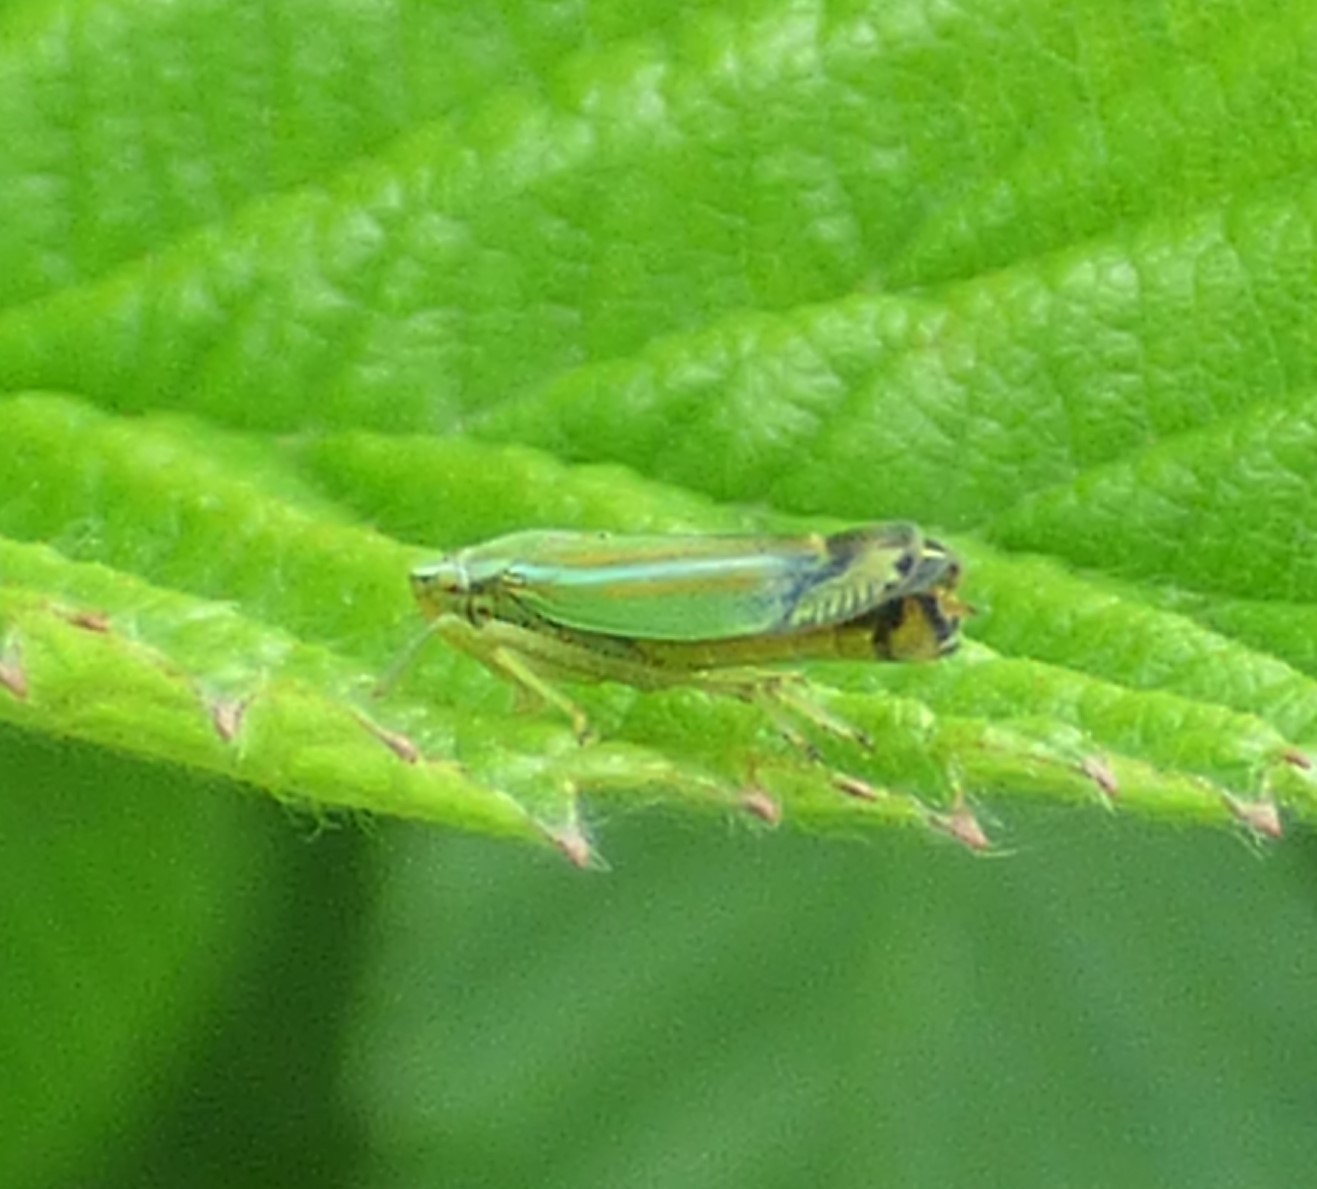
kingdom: Animalia
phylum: Arthropoda
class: Insecta
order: Hemiptera
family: Cicadellidae
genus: Graphocephala
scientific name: Graphocephala versuta
